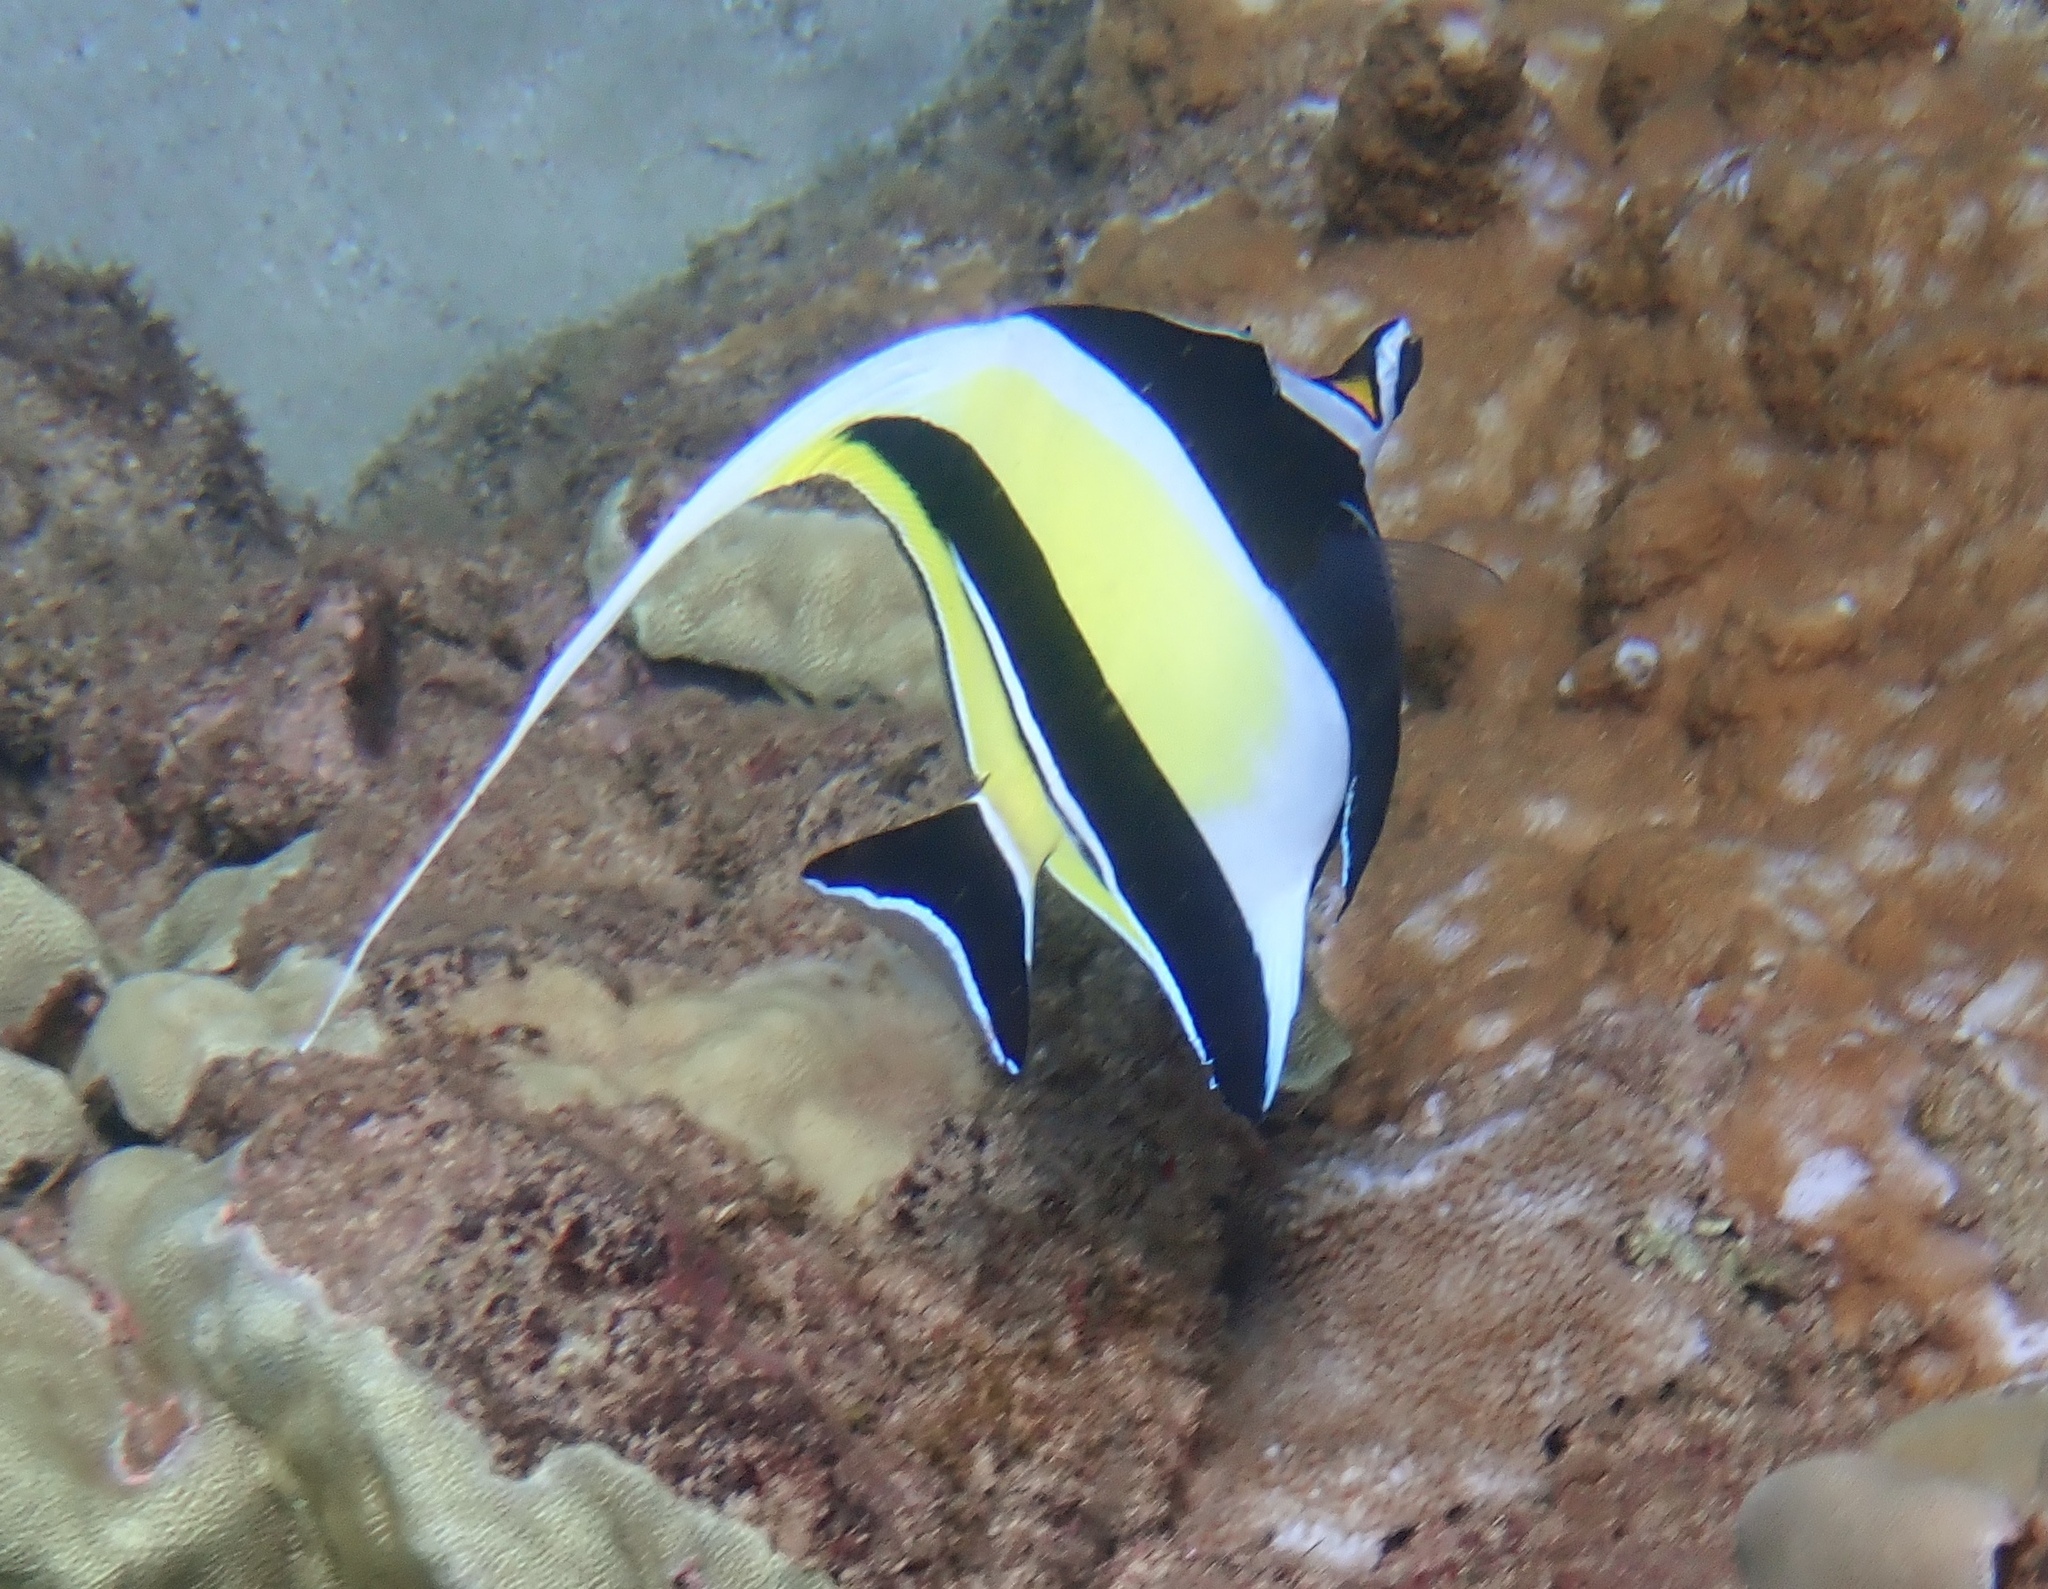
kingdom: Animalia
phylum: Chordata
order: Perciformes
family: Zanclidae
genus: Zanclus
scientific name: Zanclus cornutus
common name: Moorish idol
